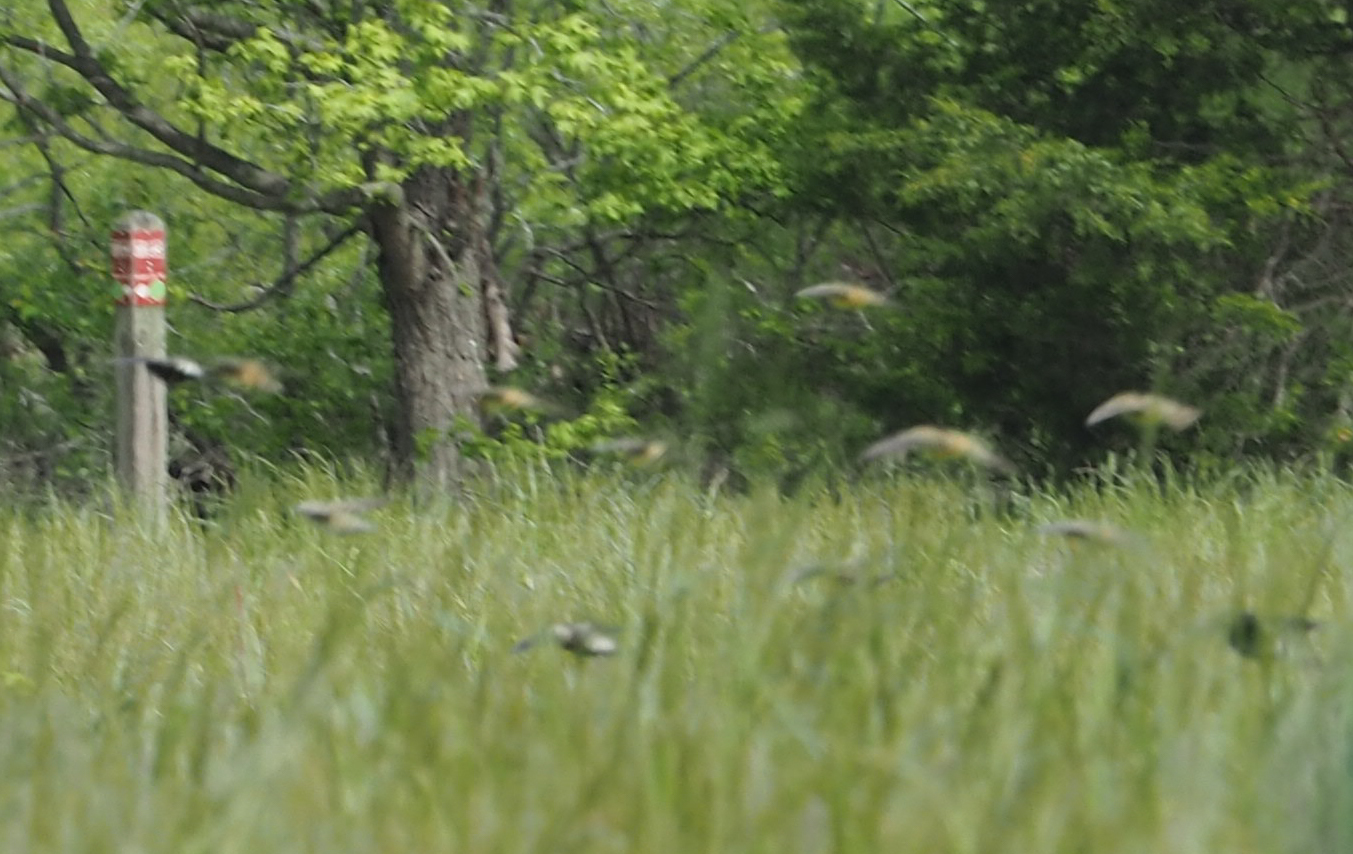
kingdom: Animalia
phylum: Chordata
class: Aves
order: Passeriformes
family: Icteridae
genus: Dolichonyx
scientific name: Dolichonyx oryzivorus
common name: Bobolink
